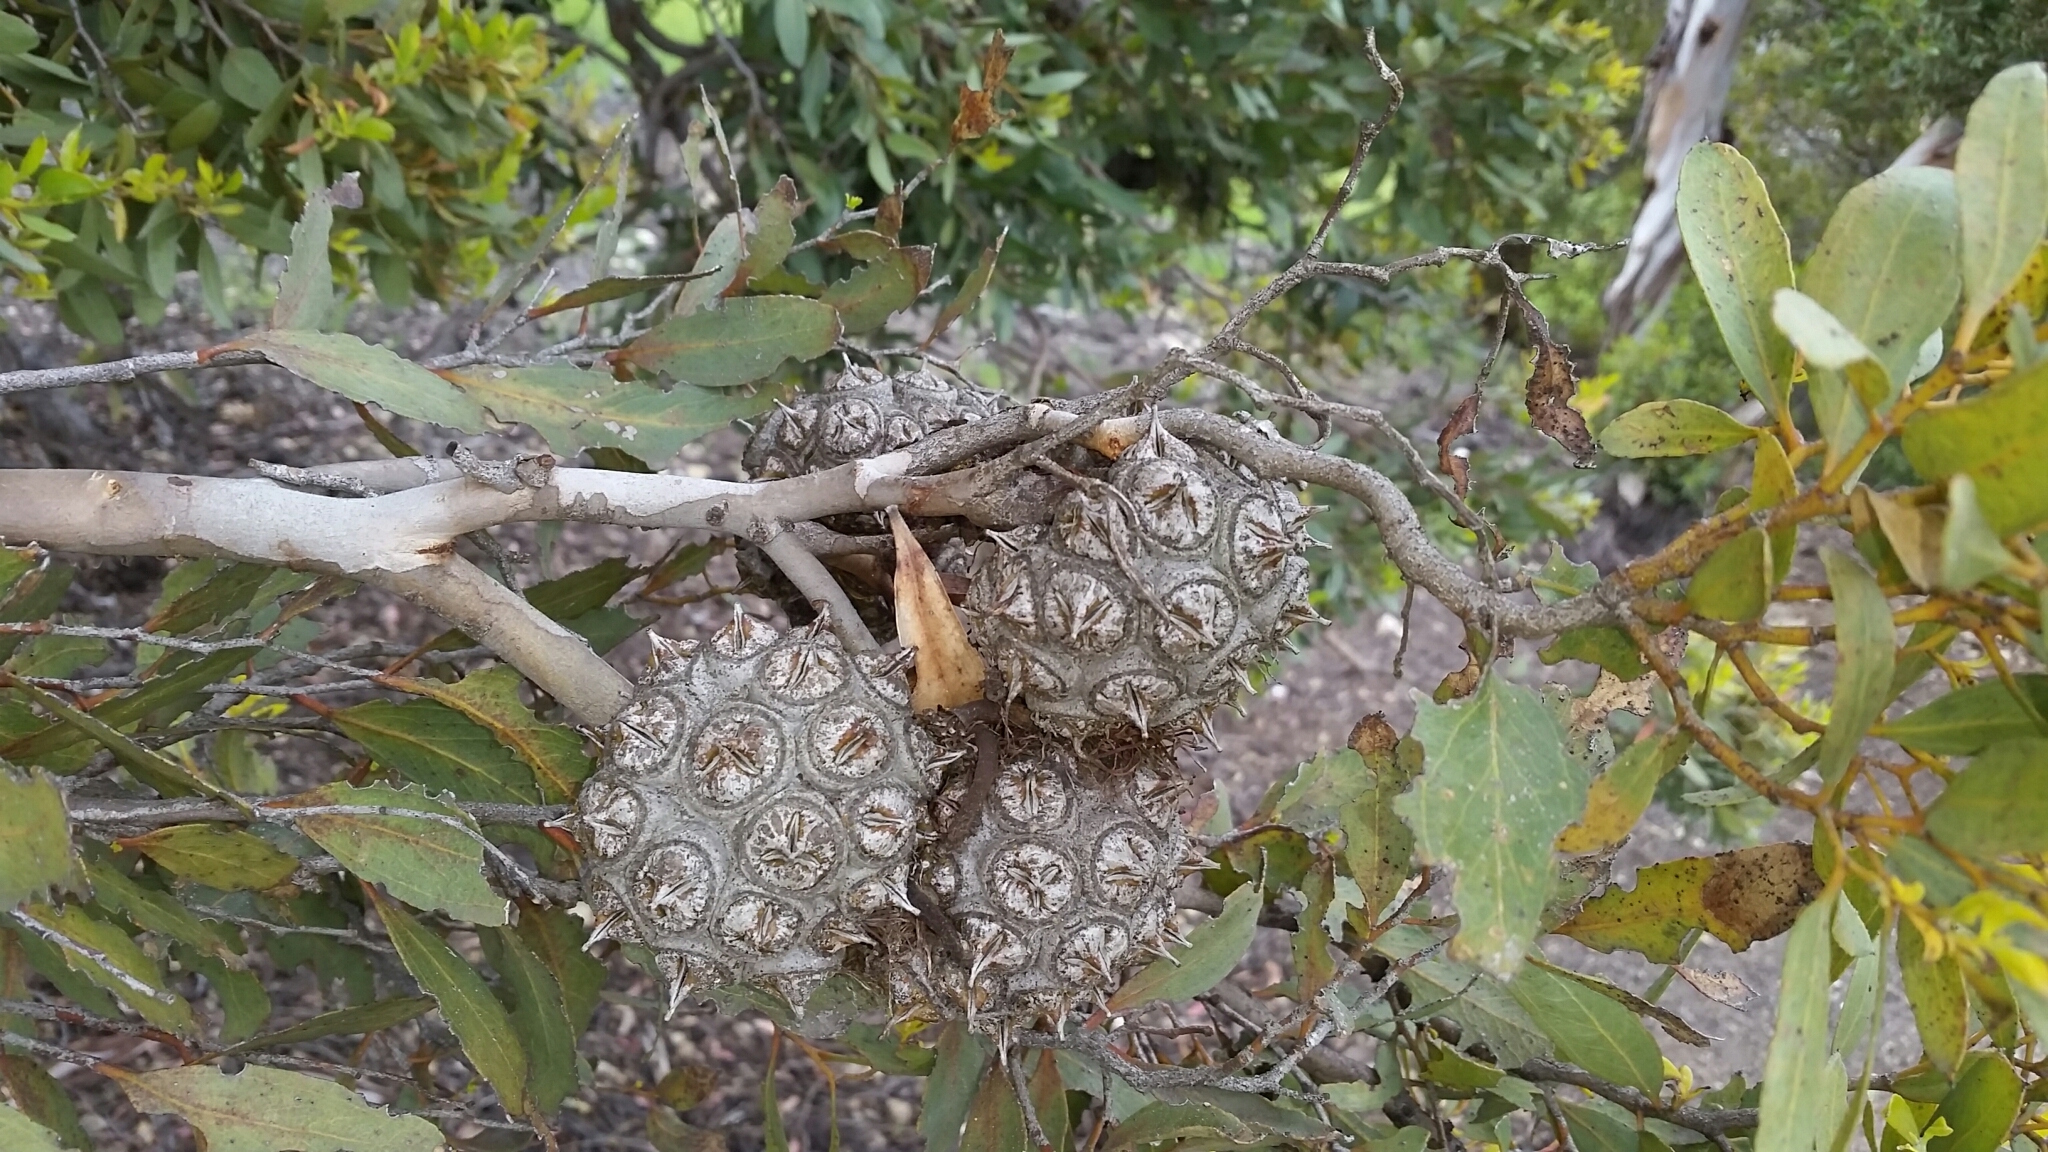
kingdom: Plantae
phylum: Tracheophyta
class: Magnoliopsida
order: Myrtales
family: Myrtaceae
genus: Eucalyptus
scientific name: Eucalyptus conferruminata
